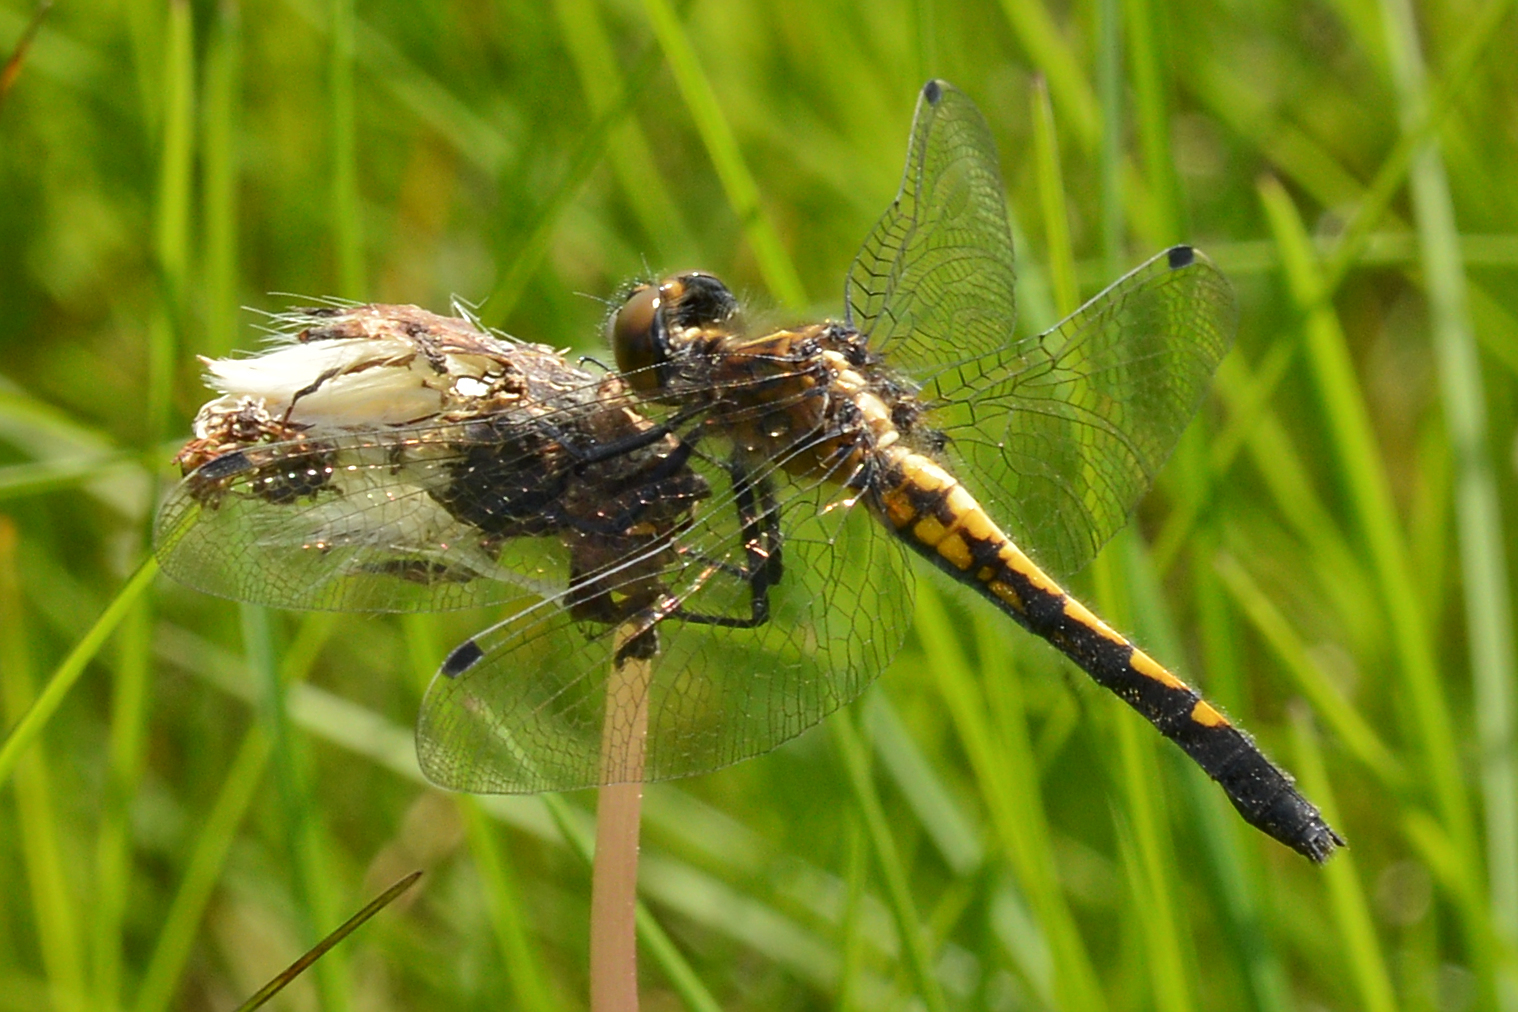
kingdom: Animalia
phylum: Arthropoda
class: Insecta
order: Odonata
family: Libellulidae
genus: Leucorrhinia
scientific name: Leucorrhinia intacta
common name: Dot-tailed whiteface
